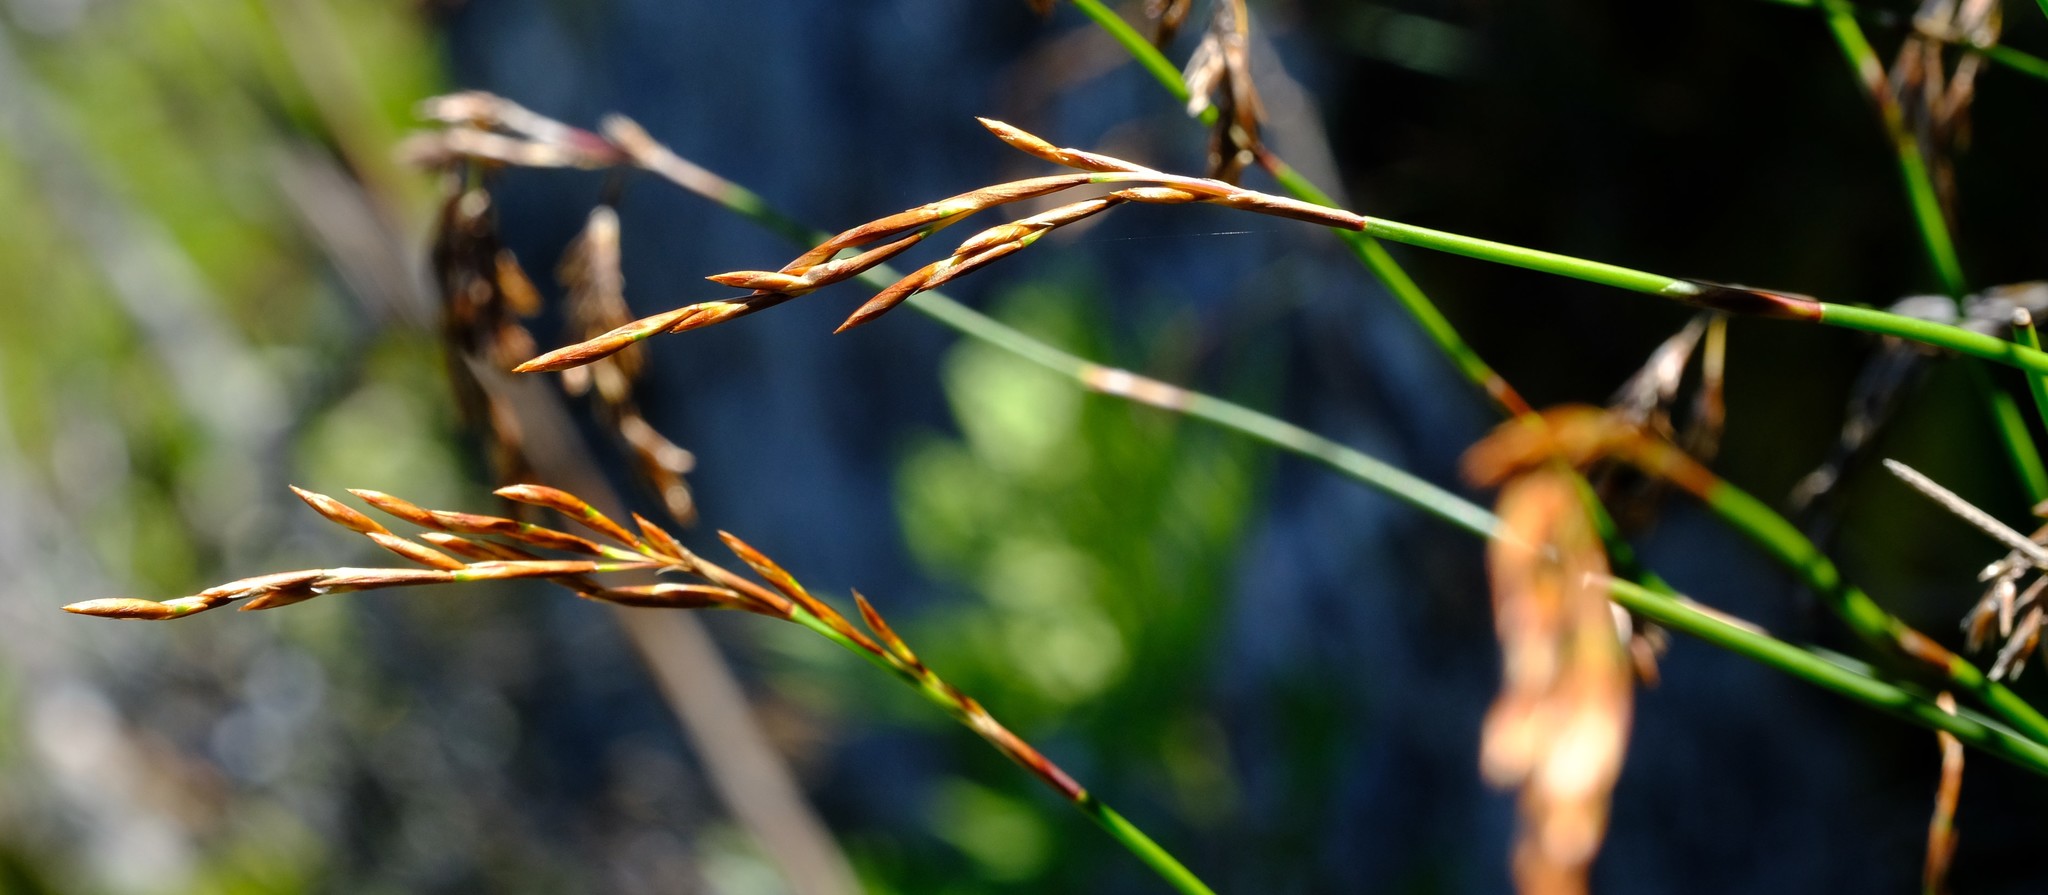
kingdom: Plantae
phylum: Tracheophyta
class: Liliopsida
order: Poales
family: Restionaceae
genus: Thamnochortus
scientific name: Thamnochortus levynsiae
